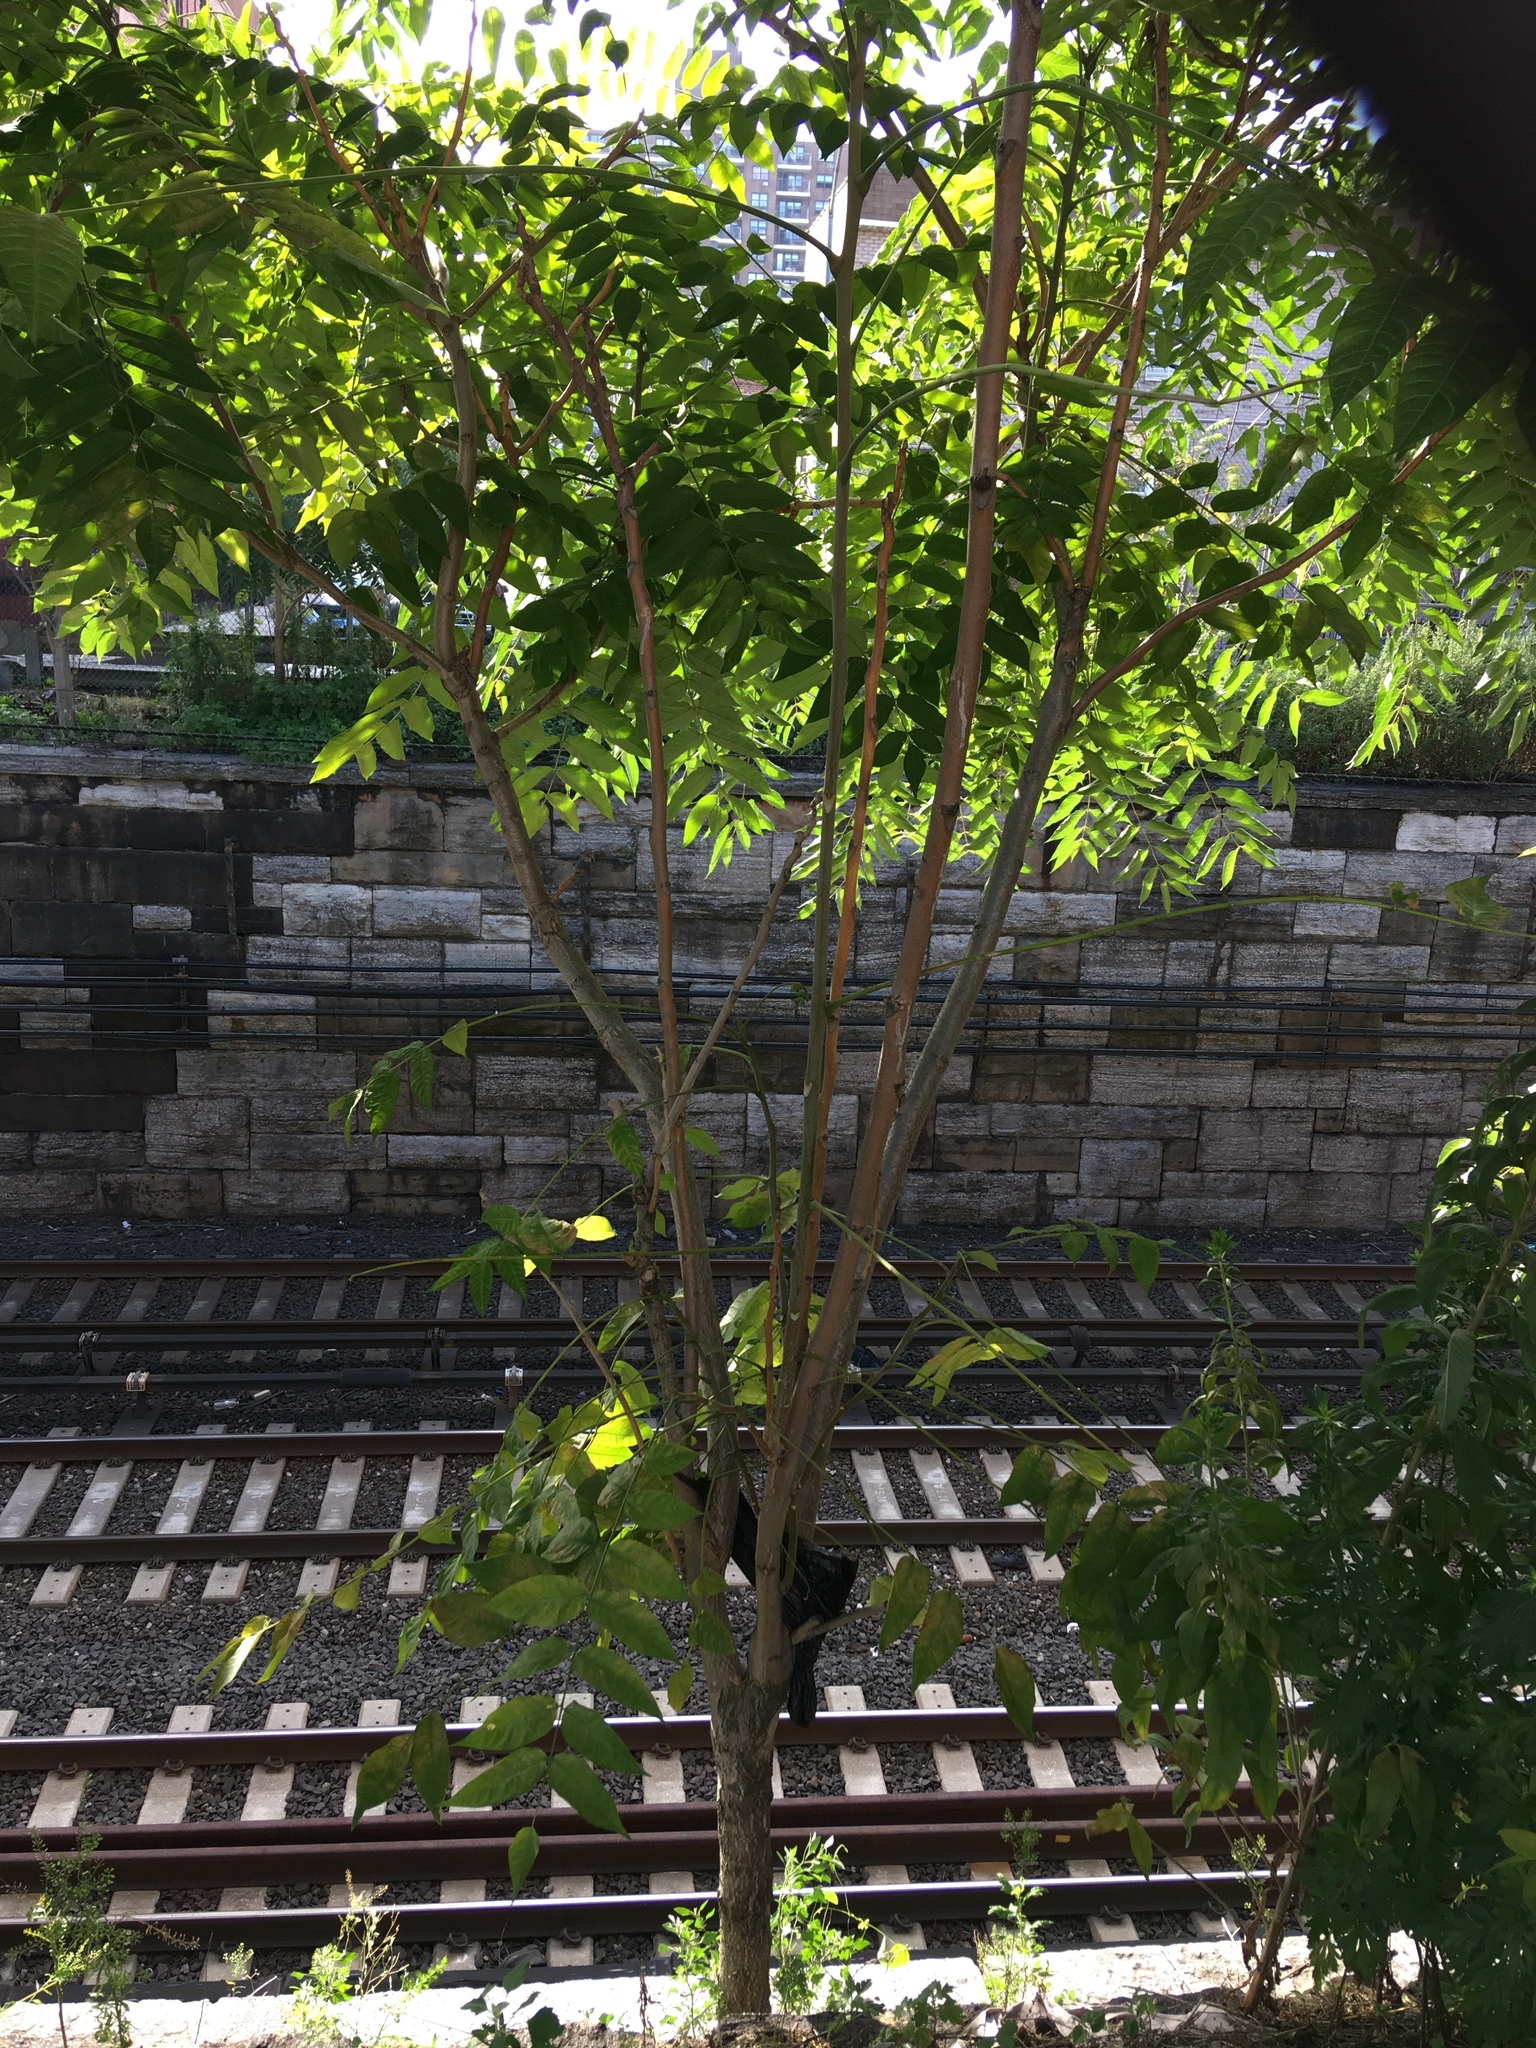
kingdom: Plantae
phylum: Tracheophyta
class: Magnoliopsida
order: Sapindales
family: Simaroubaceae
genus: Ailanthus
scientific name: Ailanthus altissima
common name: Tree-of-heaven
